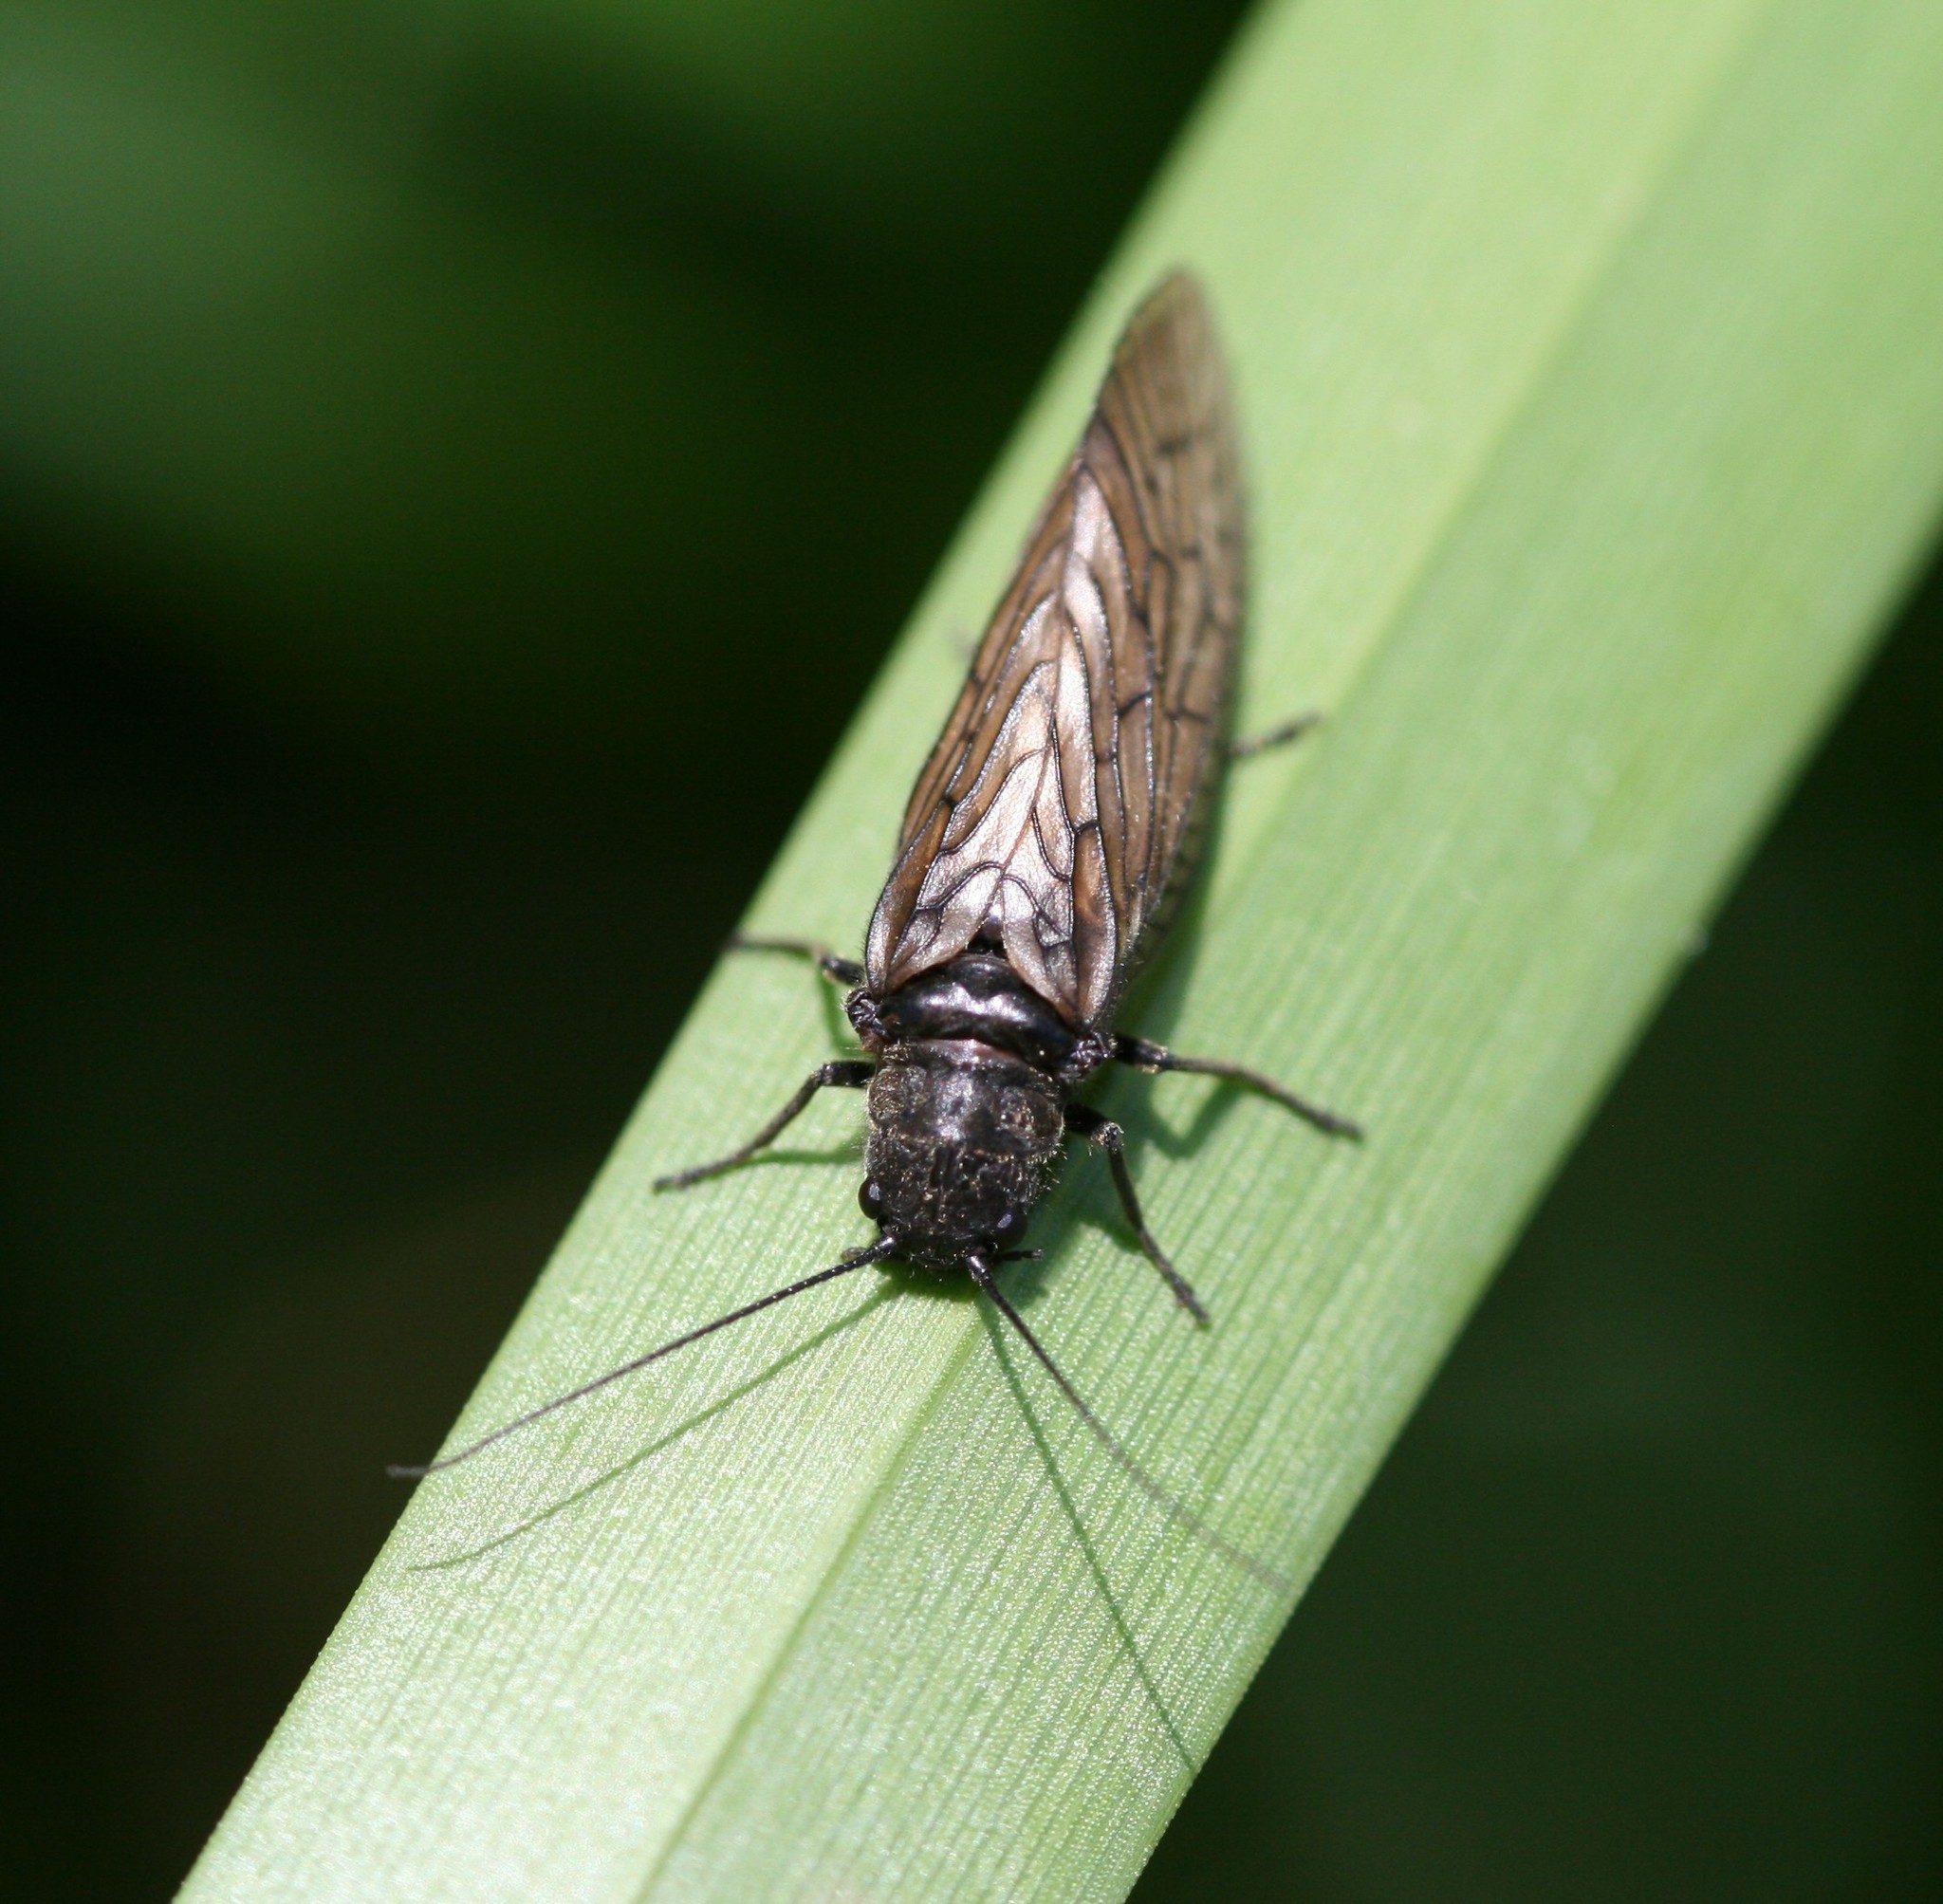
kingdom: Animalia
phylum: Arthropoda
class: Insecta
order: Megaloptera
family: Sialidae
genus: Sialis
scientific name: Sialis
